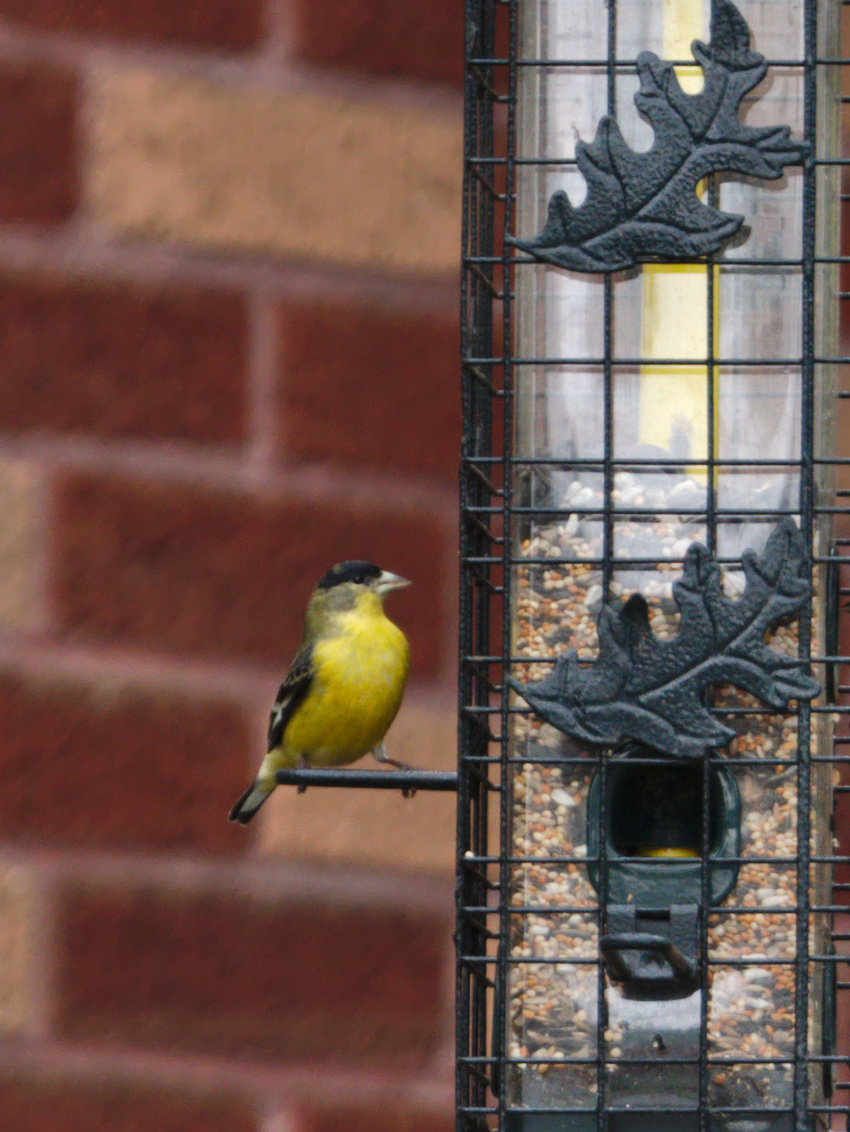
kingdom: Animalia
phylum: Chordata
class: Aves
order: Passeriformes
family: Fringillidae
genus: Spinus
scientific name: Spinus psaltria
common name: Lesser goldfinch
